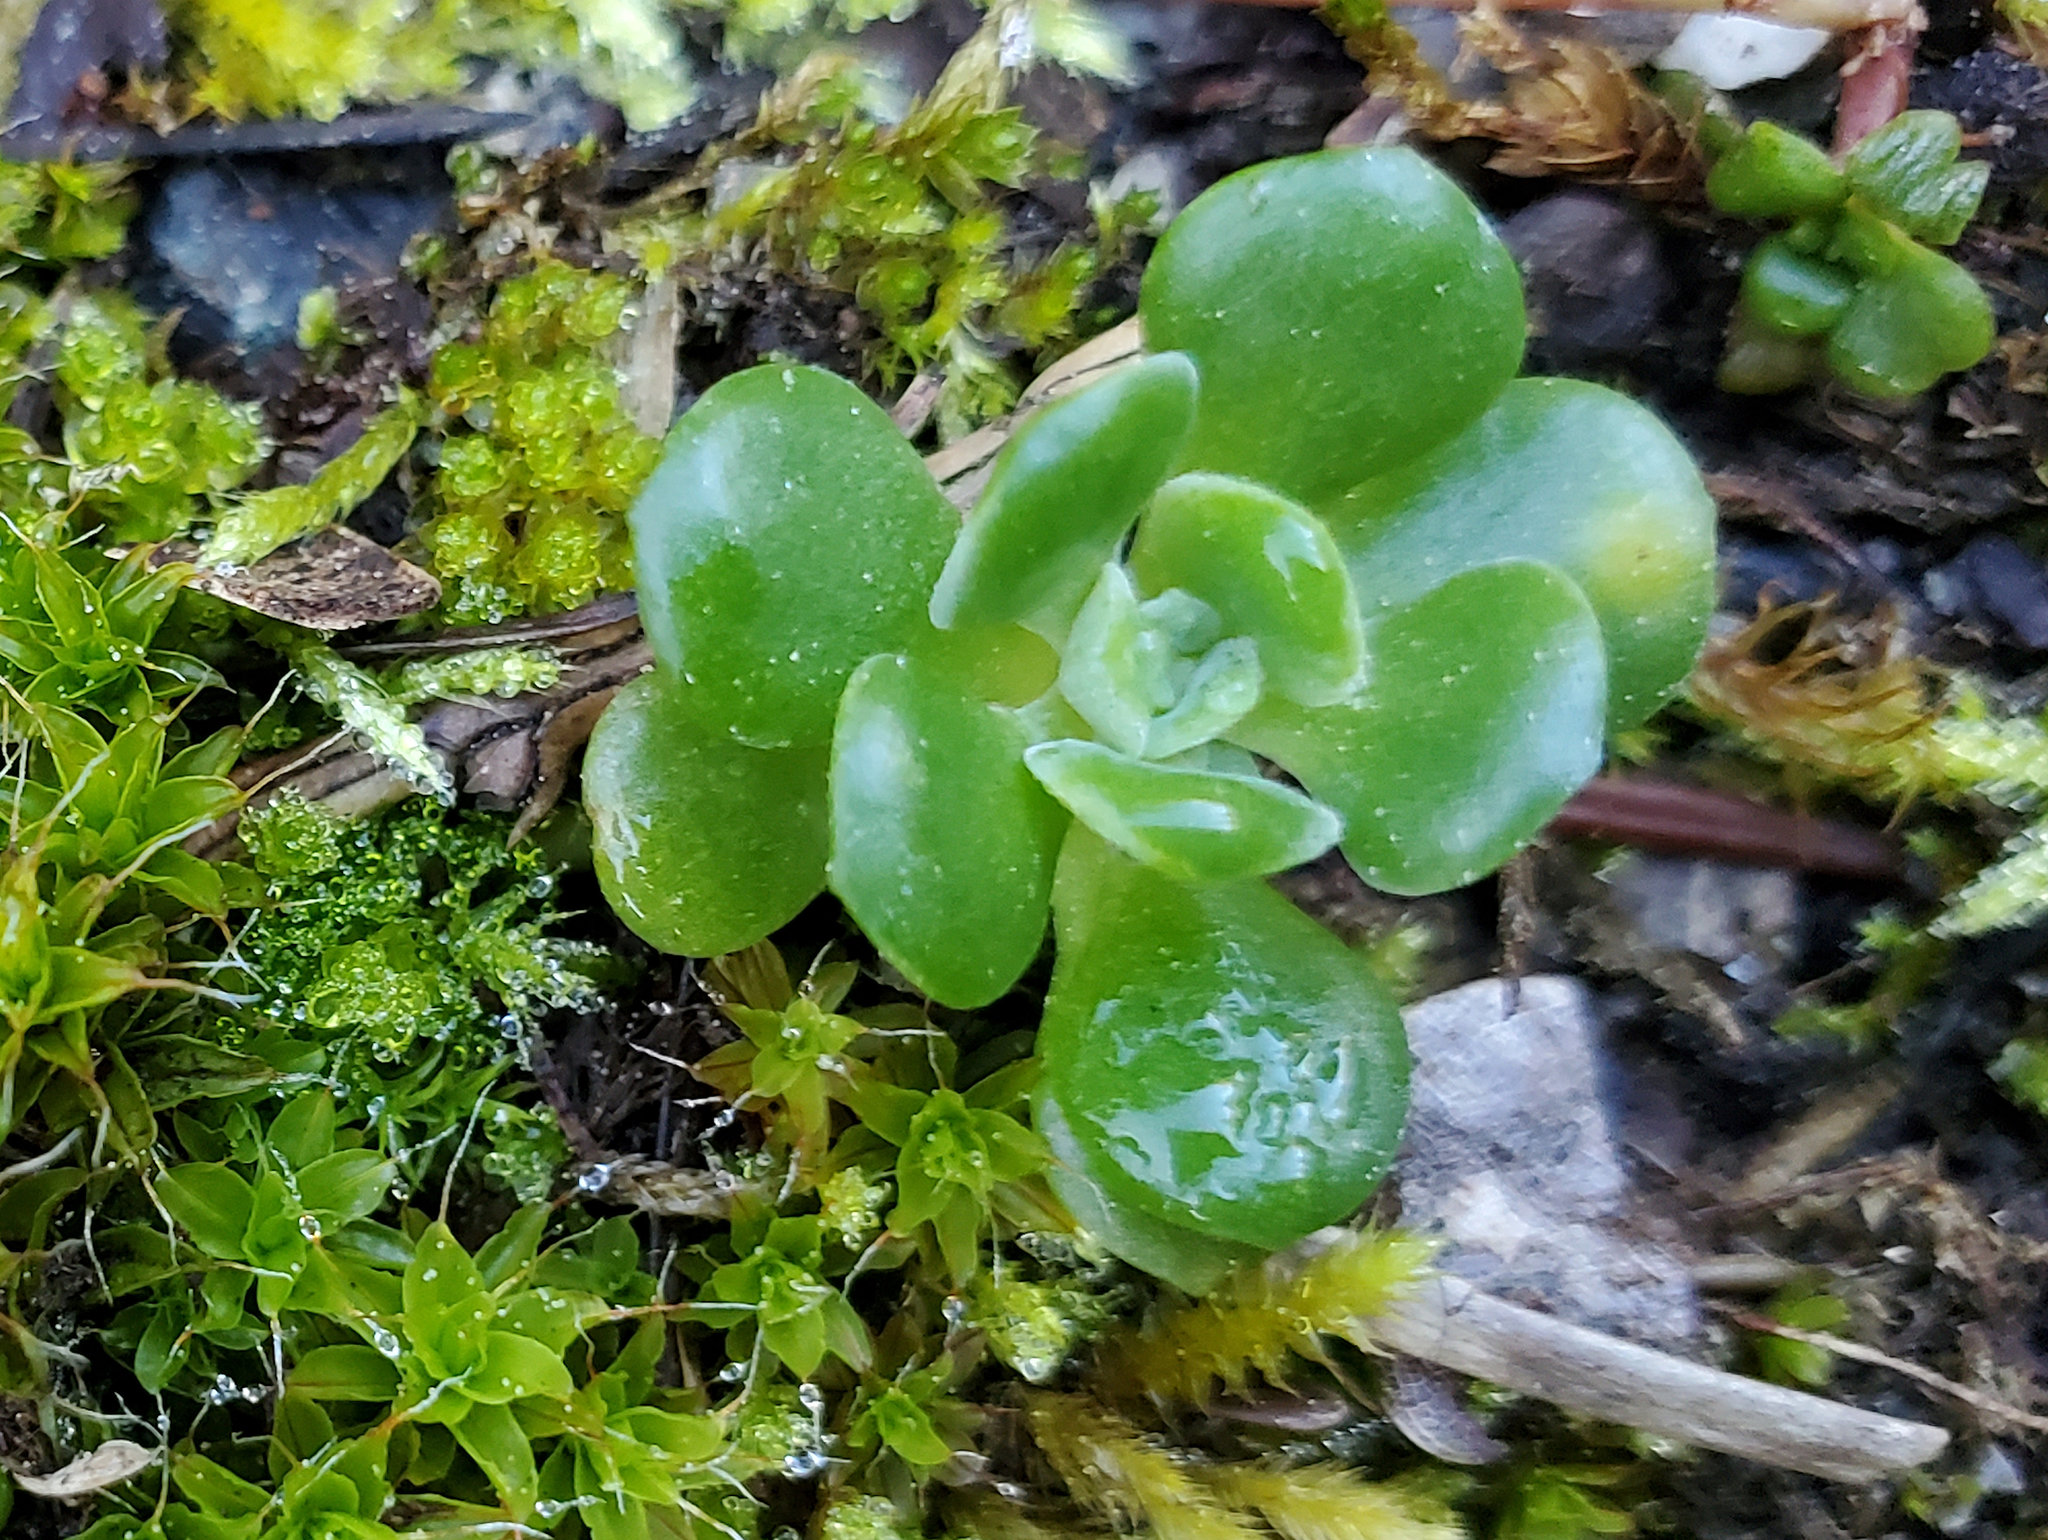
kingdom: Plantae
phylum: Tracheophyta
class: Magnoliopsida
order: Saxifragales
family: Crassulaceae
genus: Sedum
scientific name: Sedum spathulifolium
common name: Colorado stonecrop
